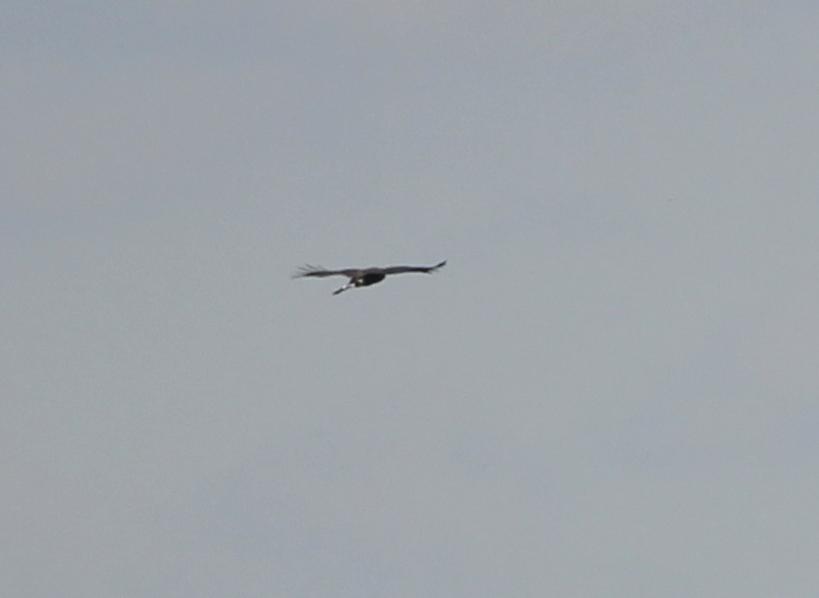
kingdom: Animalia
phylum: Chordata
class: Aves
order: Accipitriformes
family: Accipitridae
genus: Chondrohierax
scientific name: Chondrohierax uncinatus
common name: Hook-billed kite
